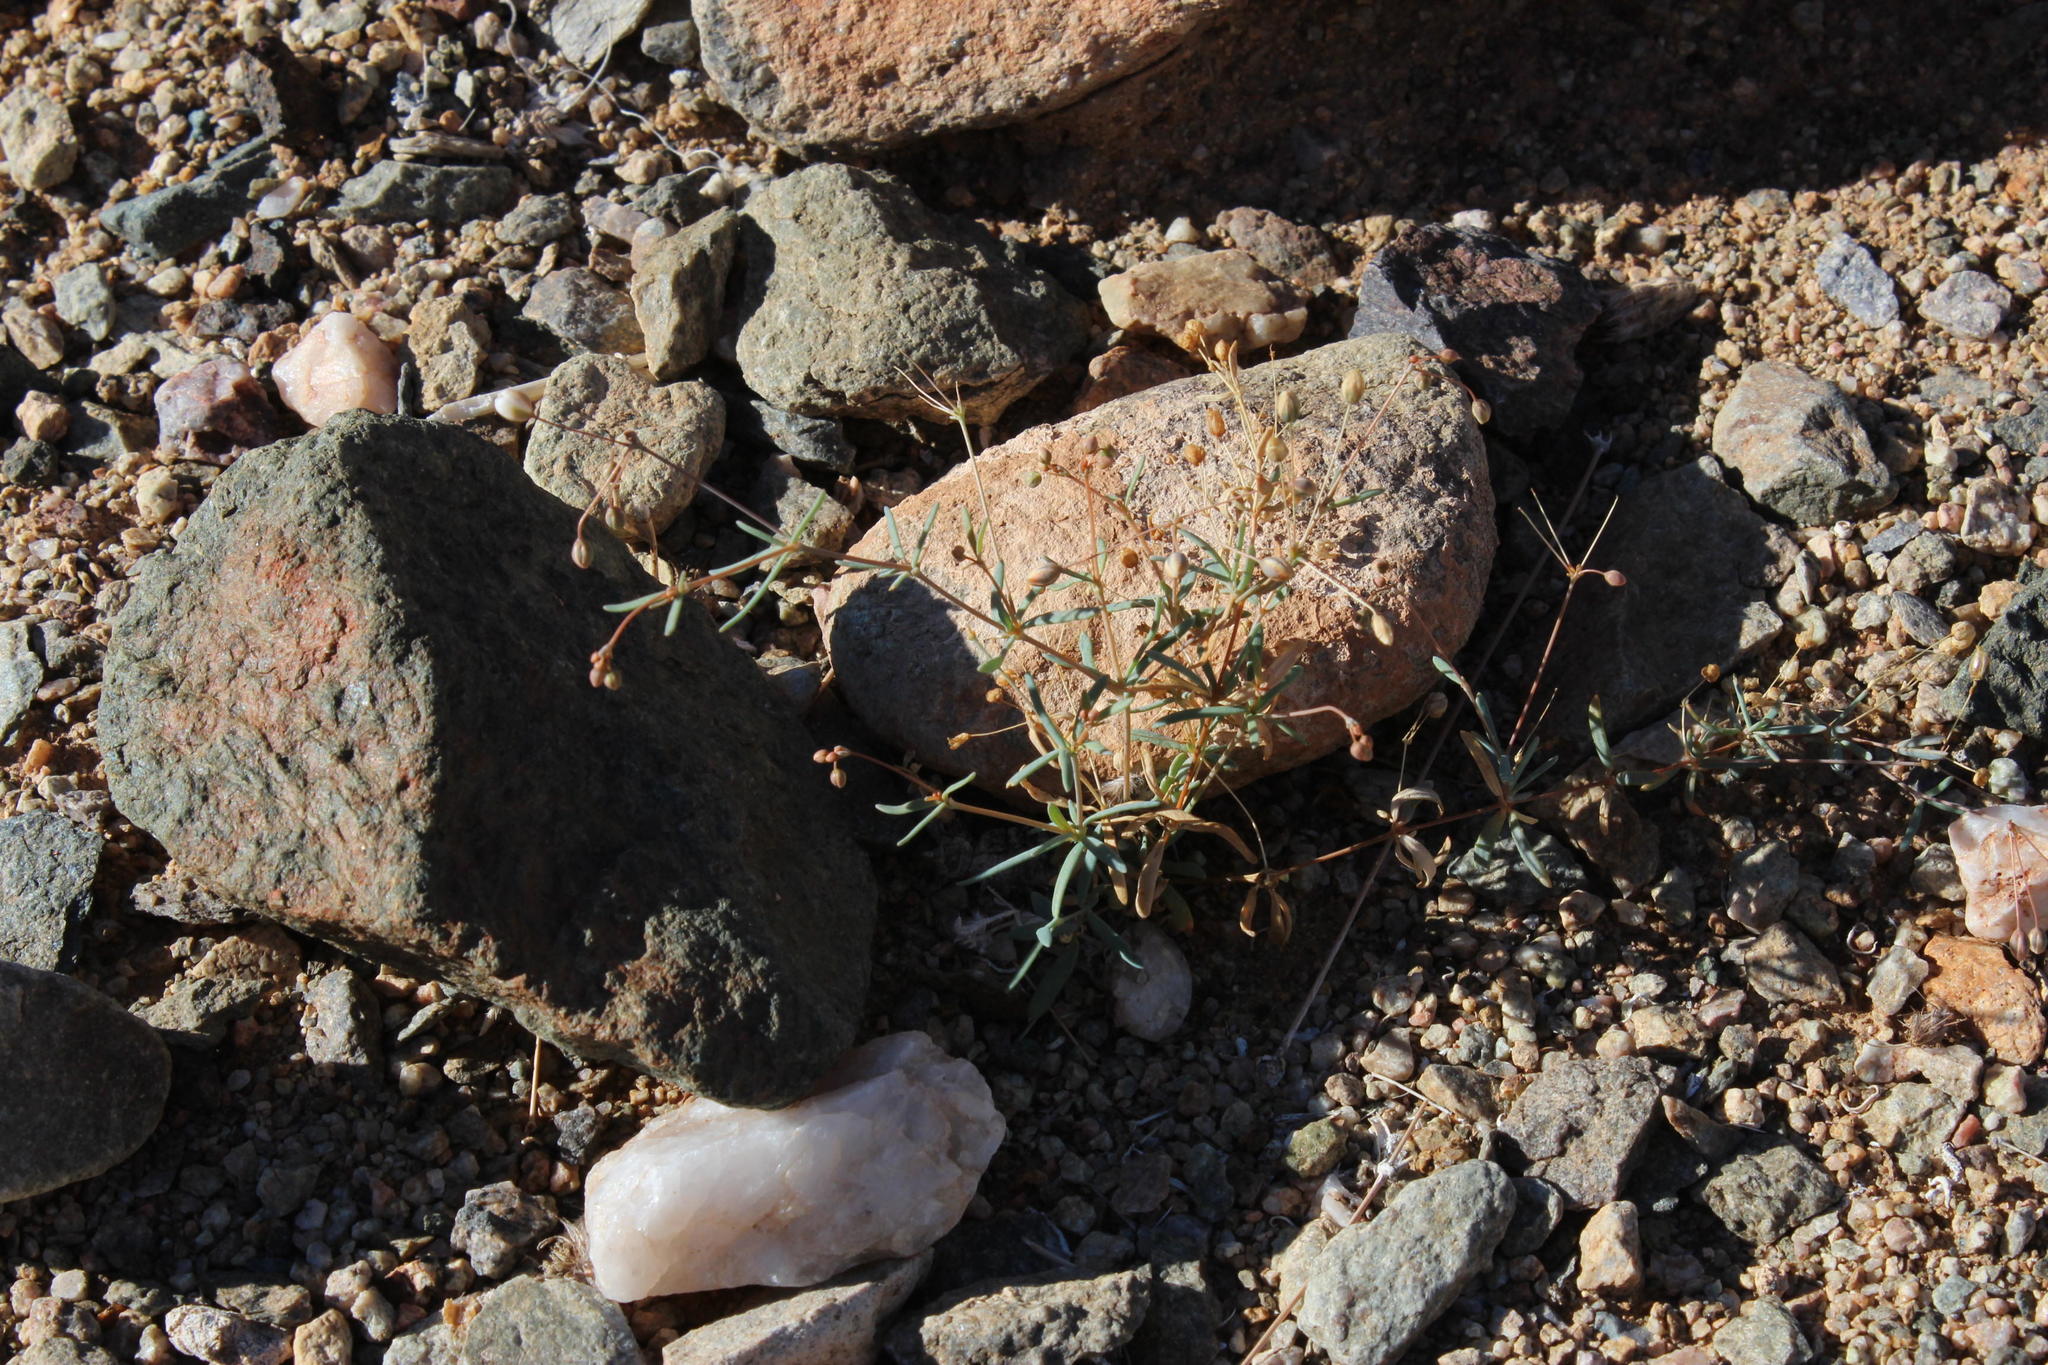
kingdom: Plantae
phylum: Tracheophyta
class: Magnoliopsida
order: Caryophyllales
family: Molluginaceae
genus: Hypertelis
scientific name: Hypertelis cerviana
